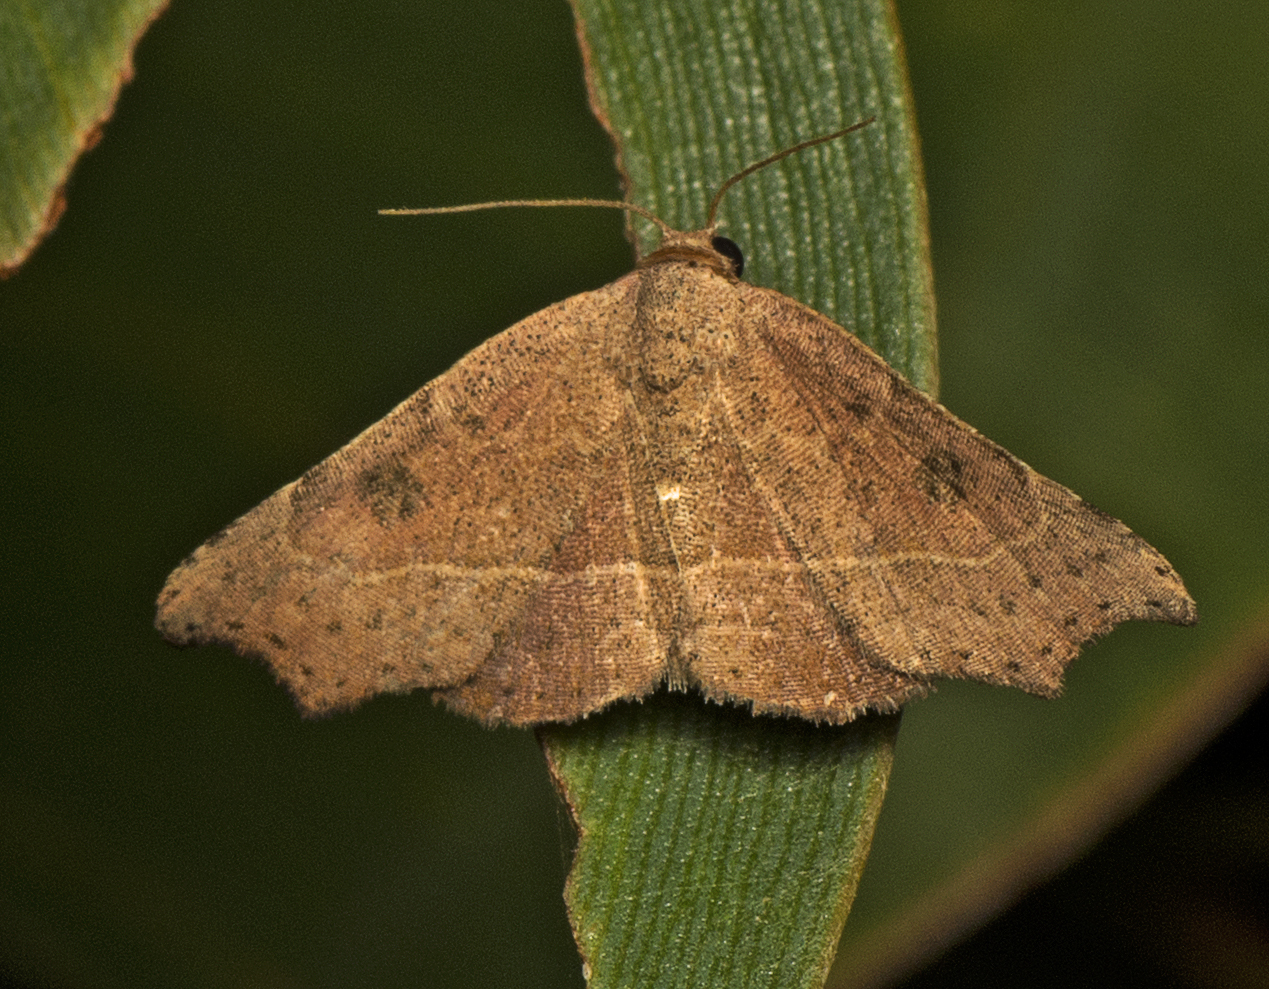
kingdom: Animalia
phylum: Arthropoda
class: Insecta
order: Lepidoptera
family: Erebidae
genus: Laspeyria
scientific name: Laspeyria concavata
